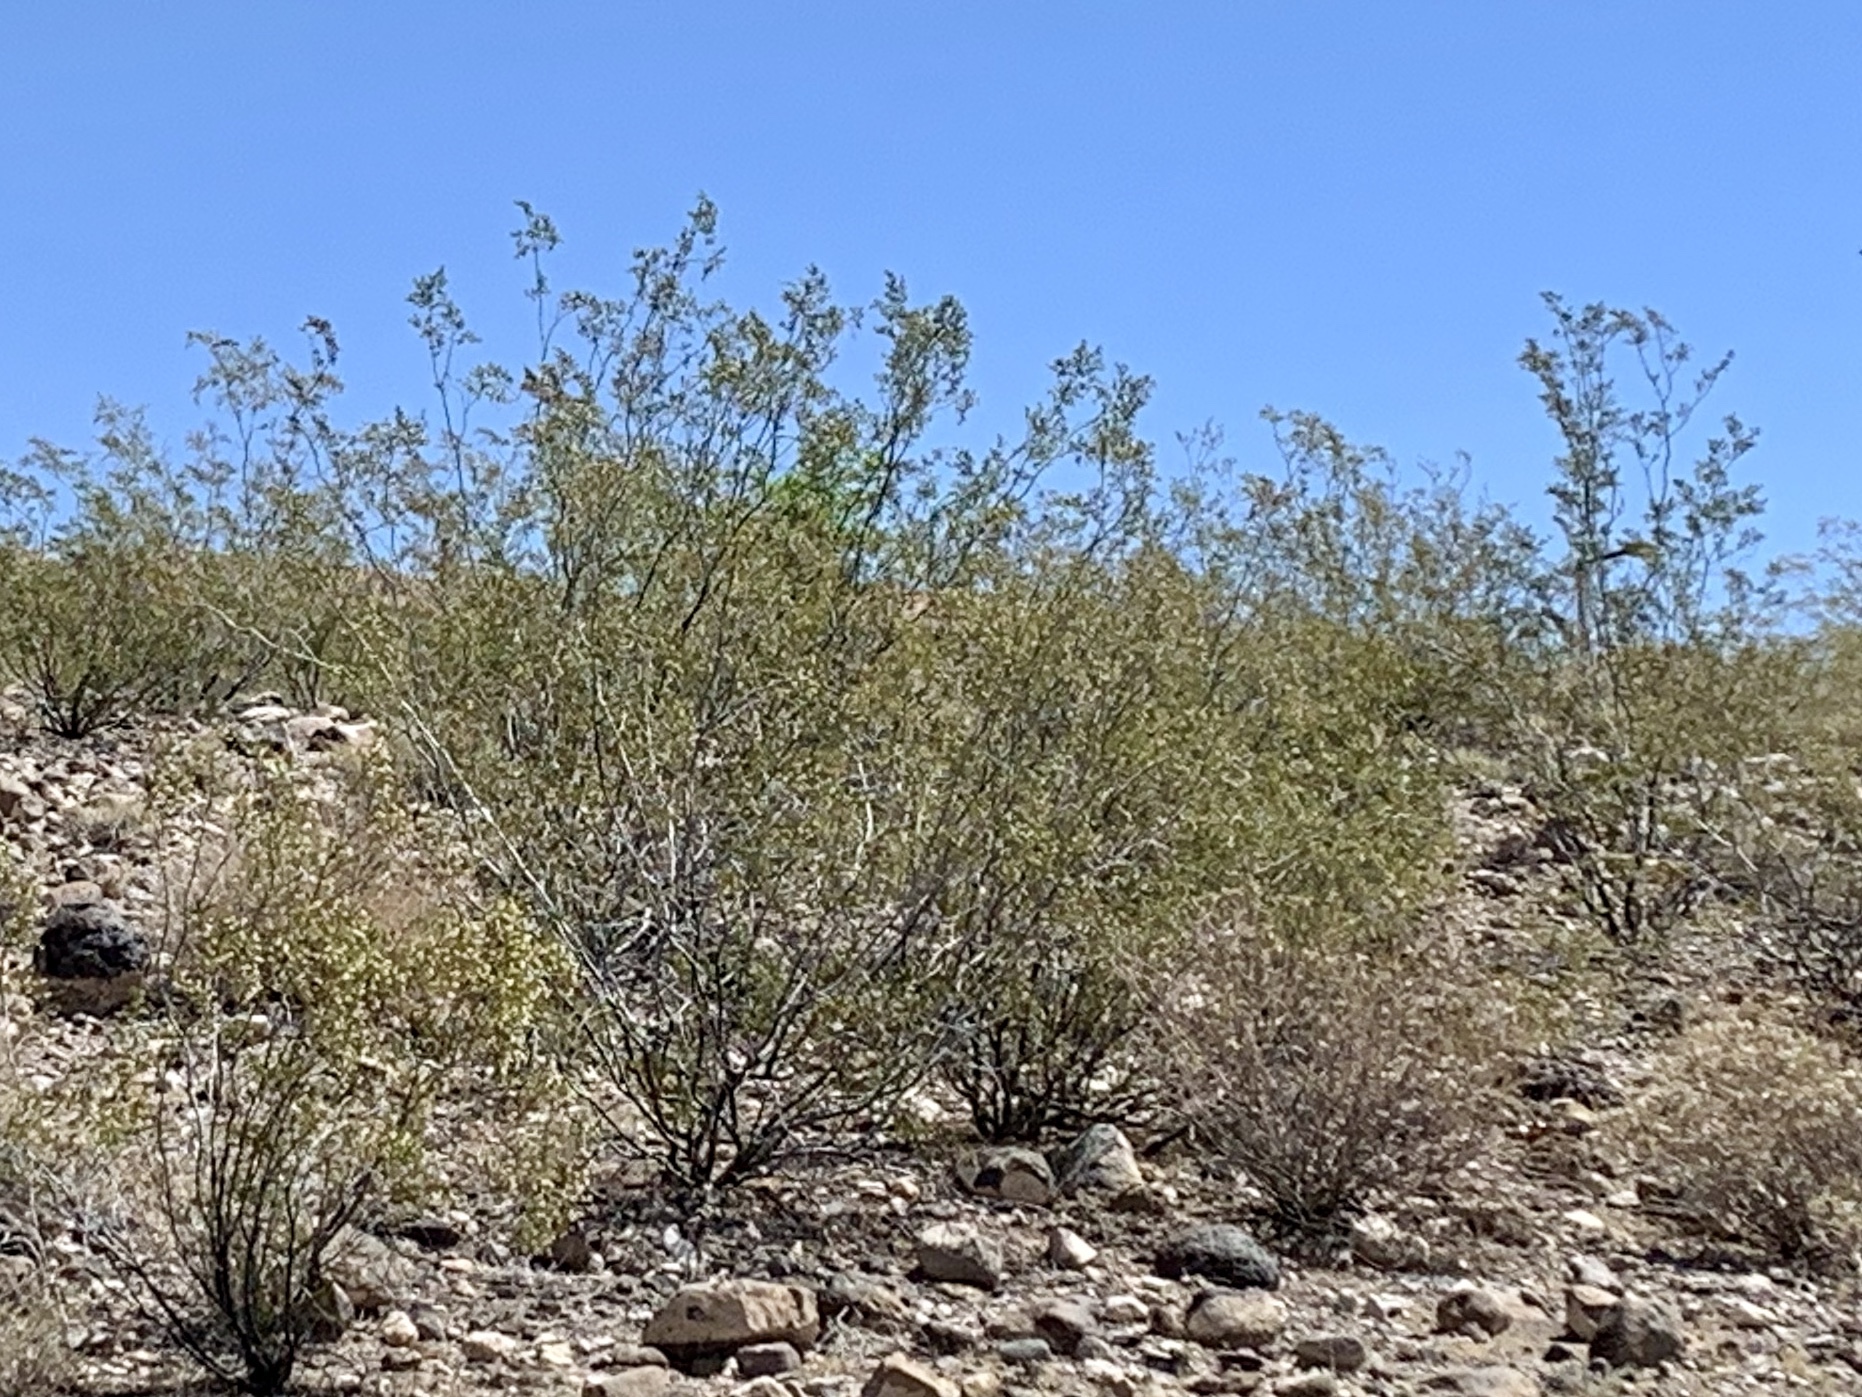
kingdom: Plantae
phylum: Tracheophyta
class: Magnoliopsida
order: Zygophyllales
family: Zygophyllaceae
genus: Larrea
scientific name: Larrea tridentata
